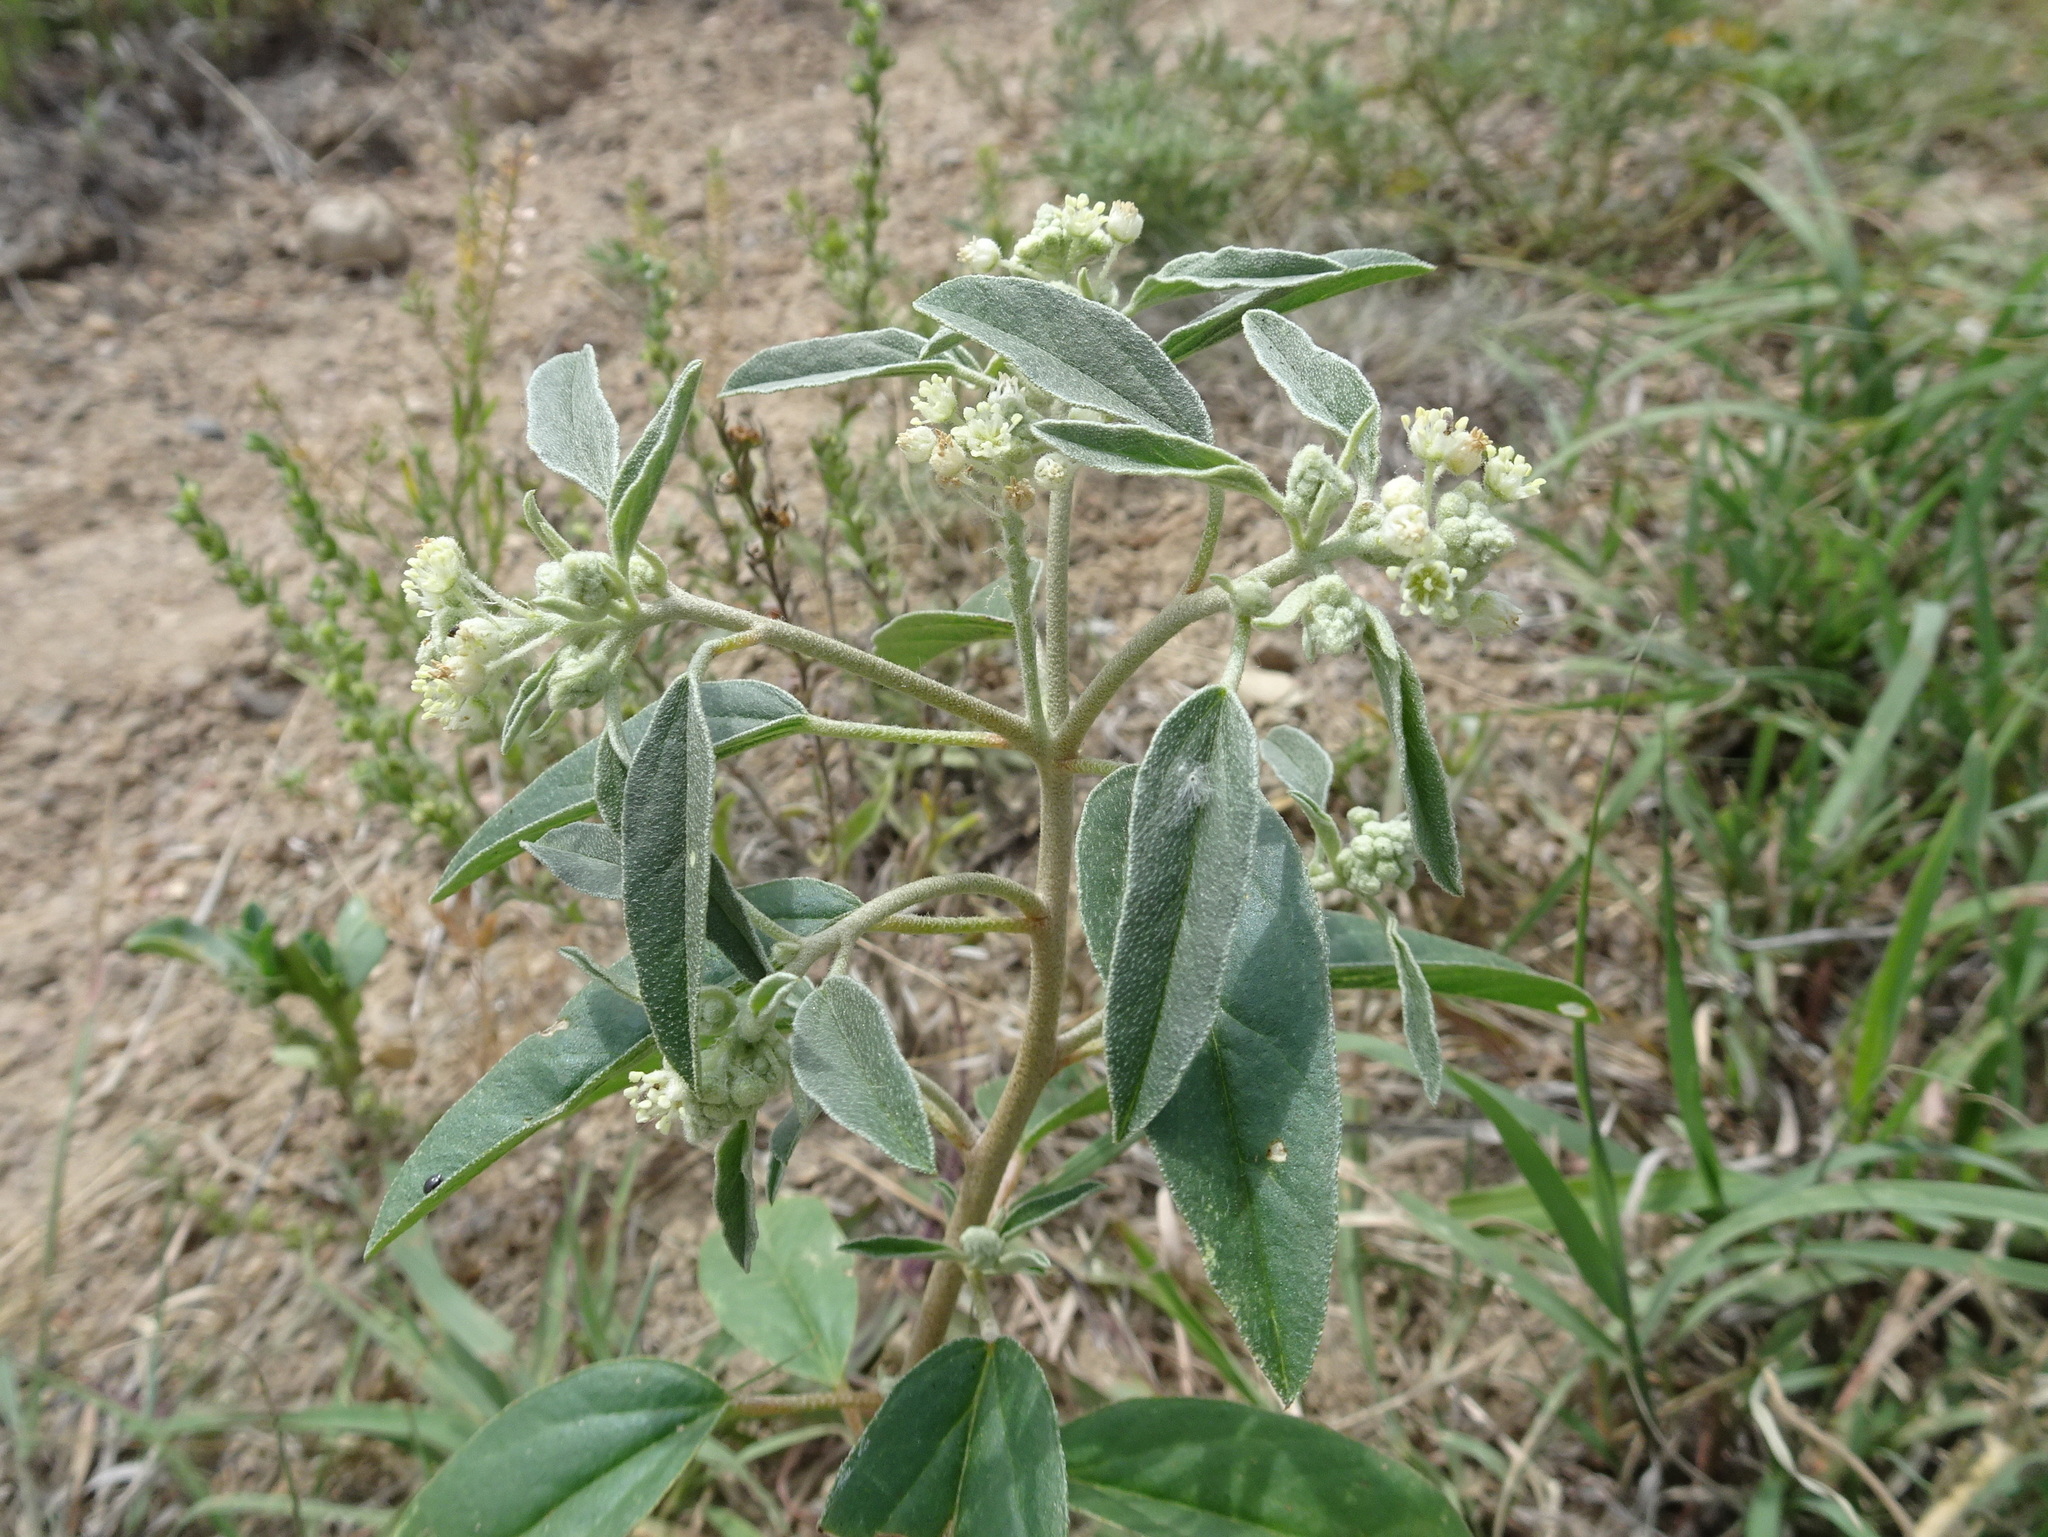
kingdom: Plantae
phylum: Tracheophyta
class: Magnoliopsida
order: Malpighiales
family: Euphorbiaceae
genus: Croton
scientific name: Croton texensis
